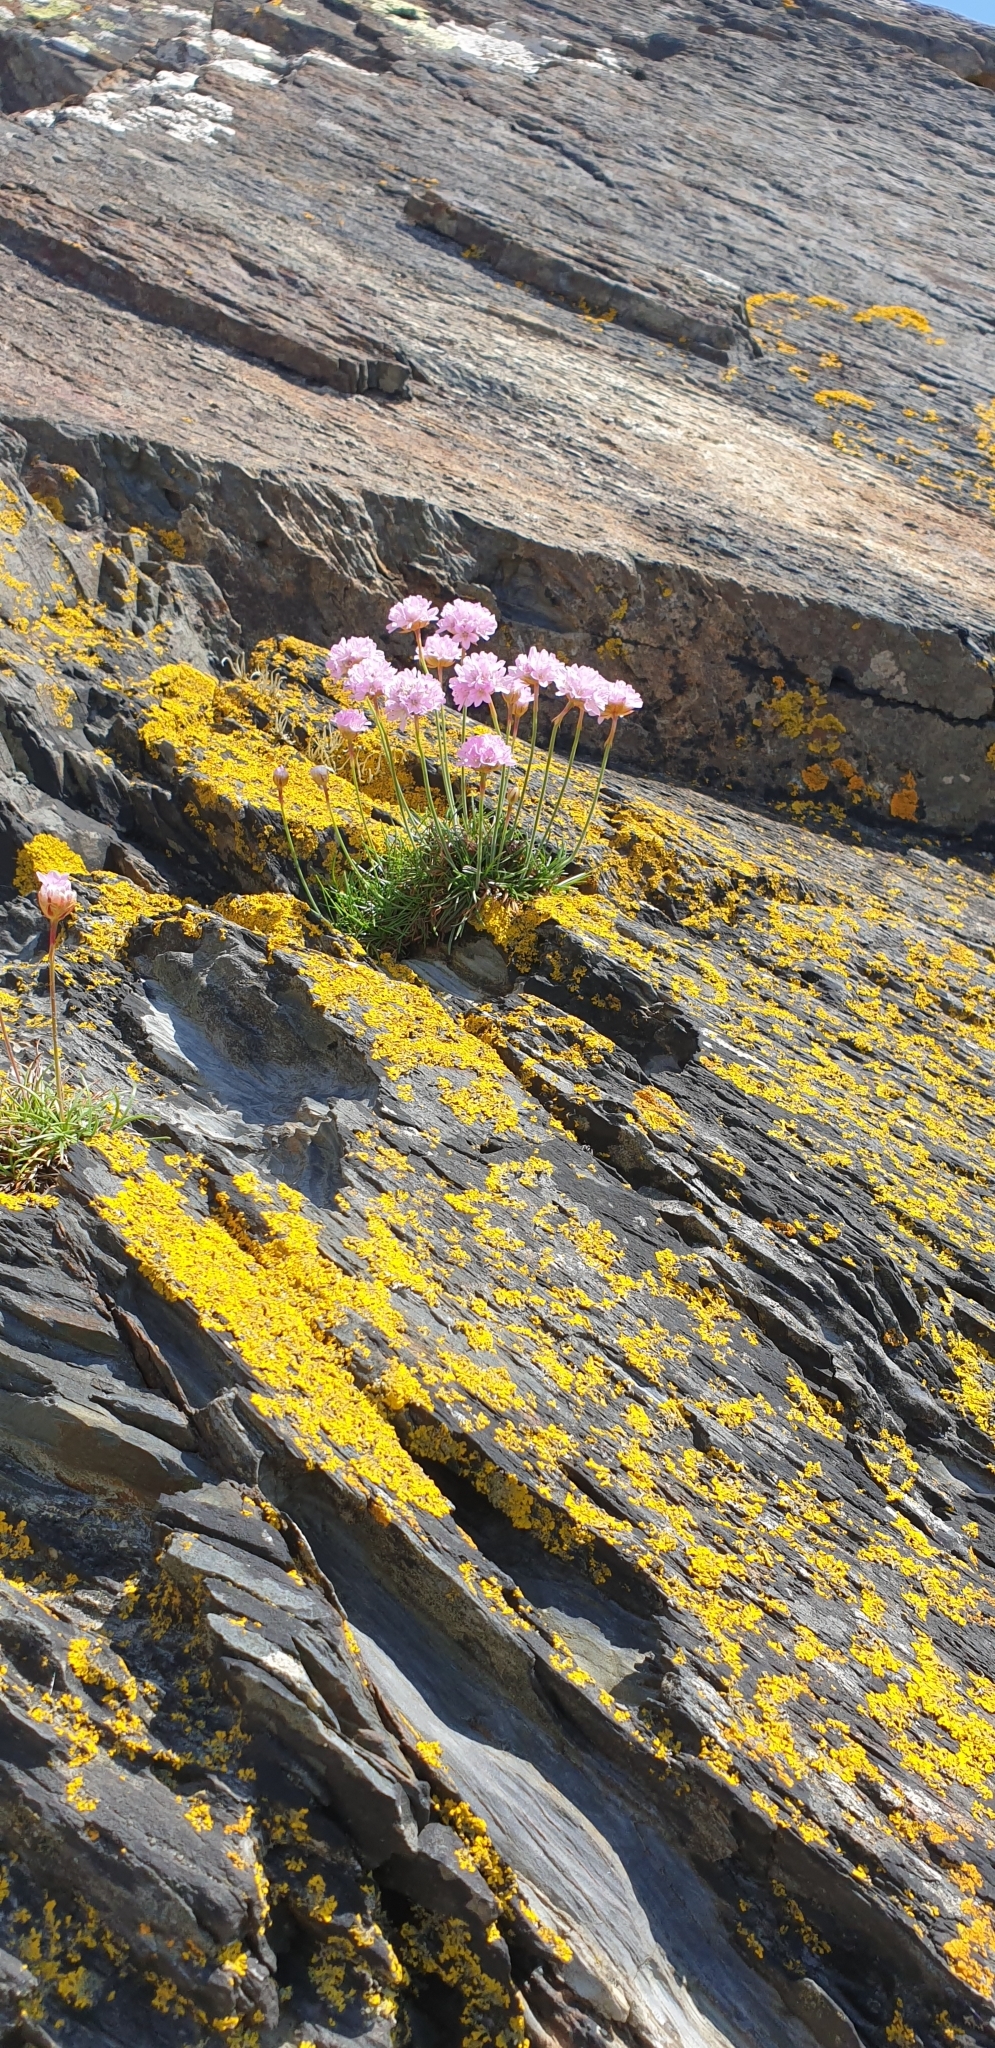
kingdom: Plantae
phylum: Tracheophyta
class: Magnoliopsida
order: Caryophyllales
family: Plumbaginaceae
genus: Armeria
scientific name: Armeria maritima
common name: Thrift
